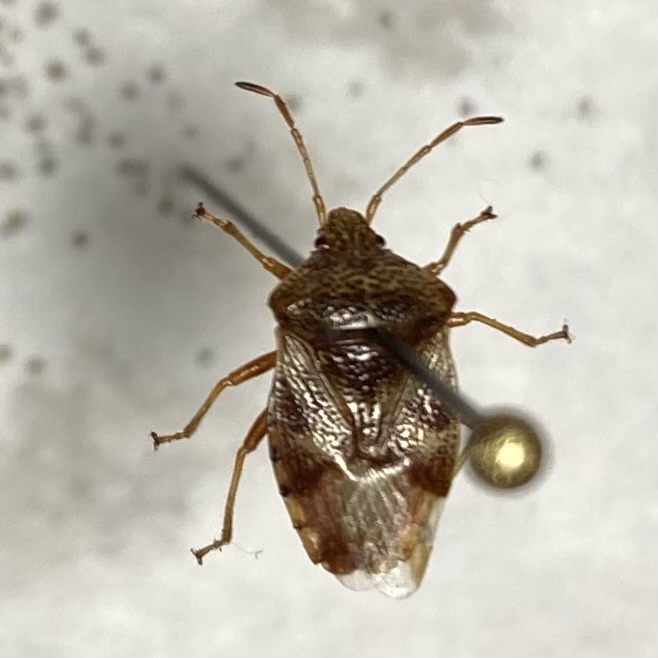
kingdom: Animalia
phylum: Arthropoda
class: Insecta
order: Hemiptera
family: Acanthosomatidae
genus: Elasmucha
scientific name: Elasmucha lateralis
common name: Shield bug
